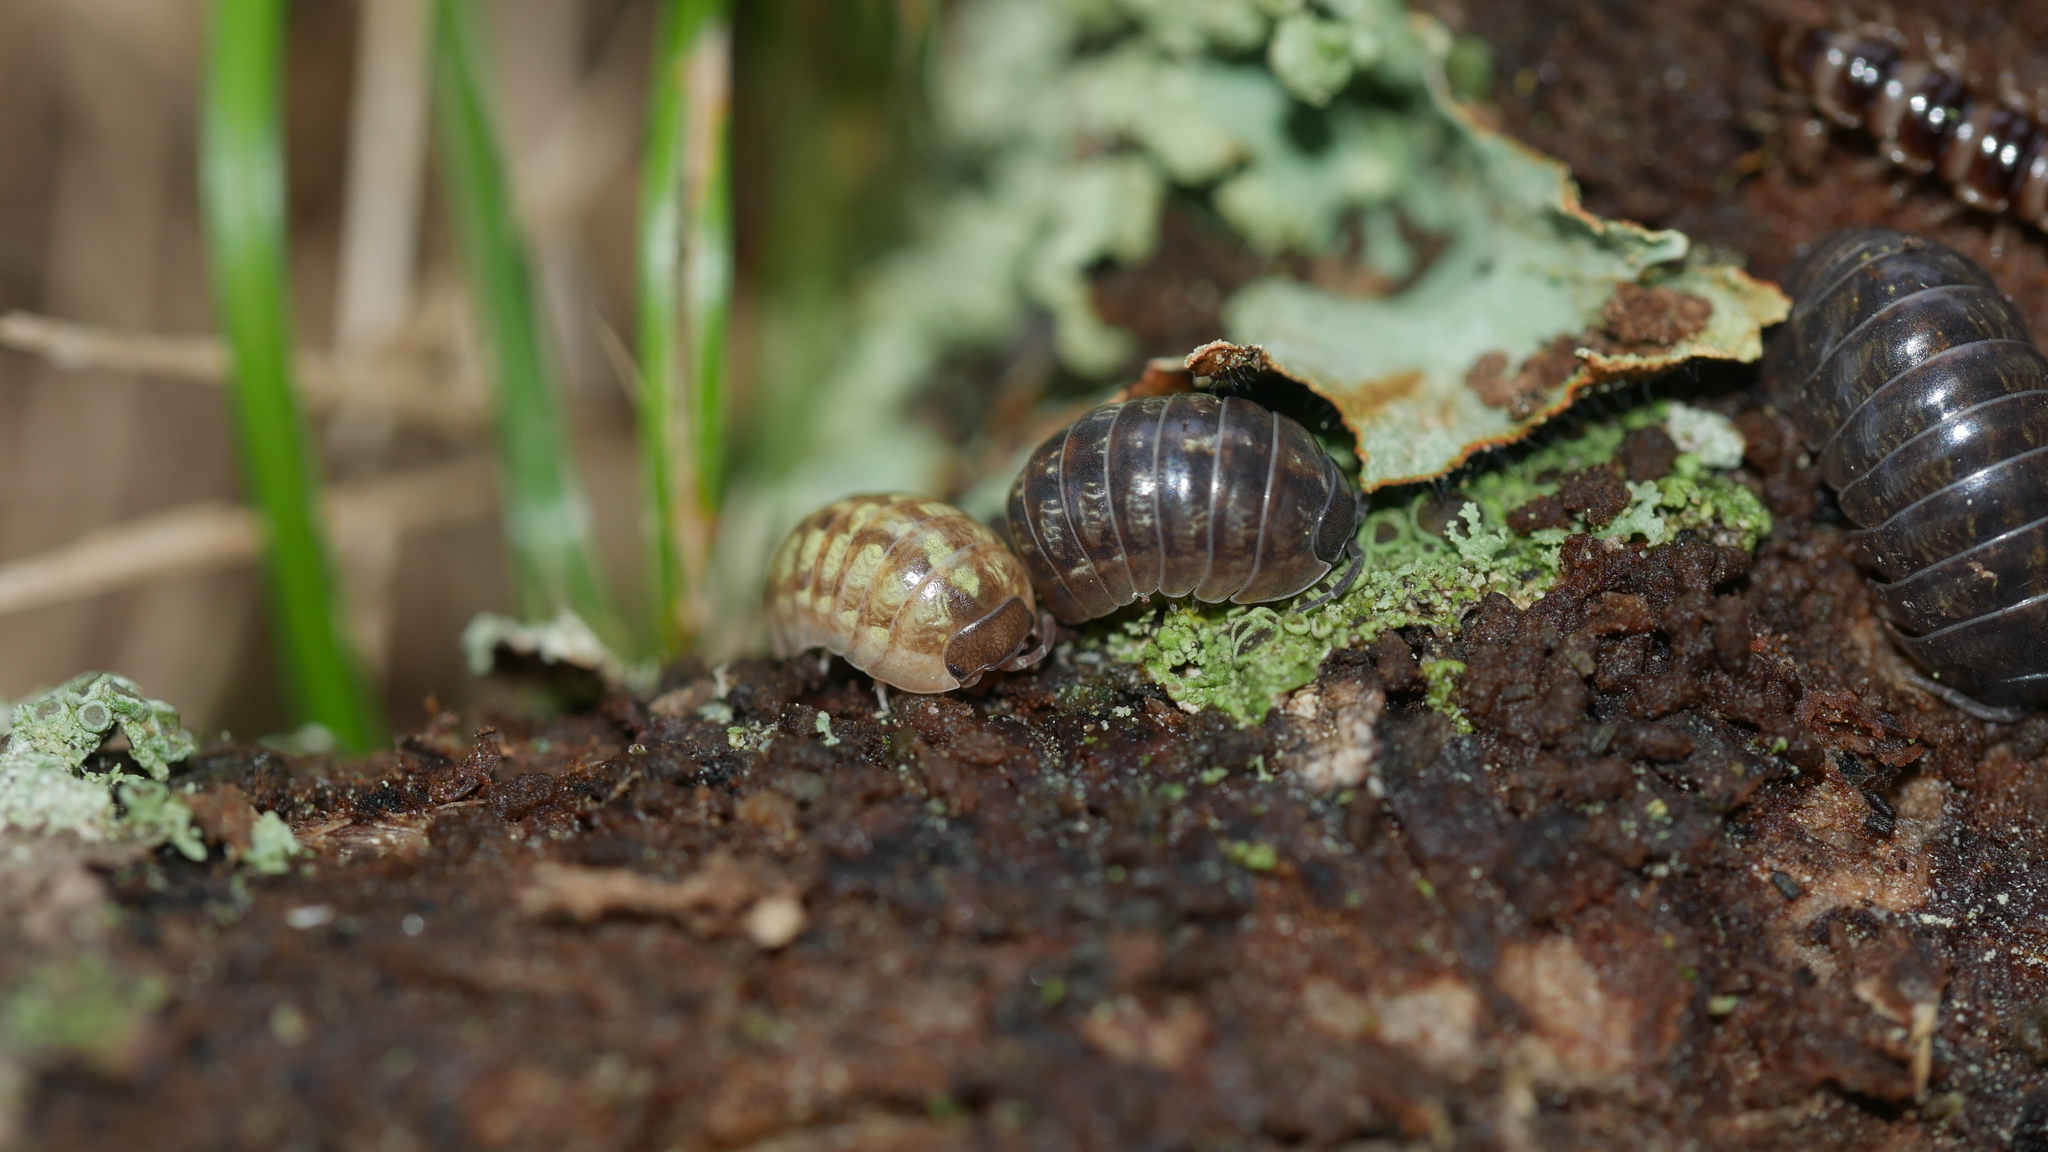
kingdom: Animalia
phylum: Arthropoda
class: Malacostraca
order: Isopoda
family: Armadillidiidae
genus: Armadillidium
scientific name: Armadillidium vulgare
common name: Common pill woodlouse
